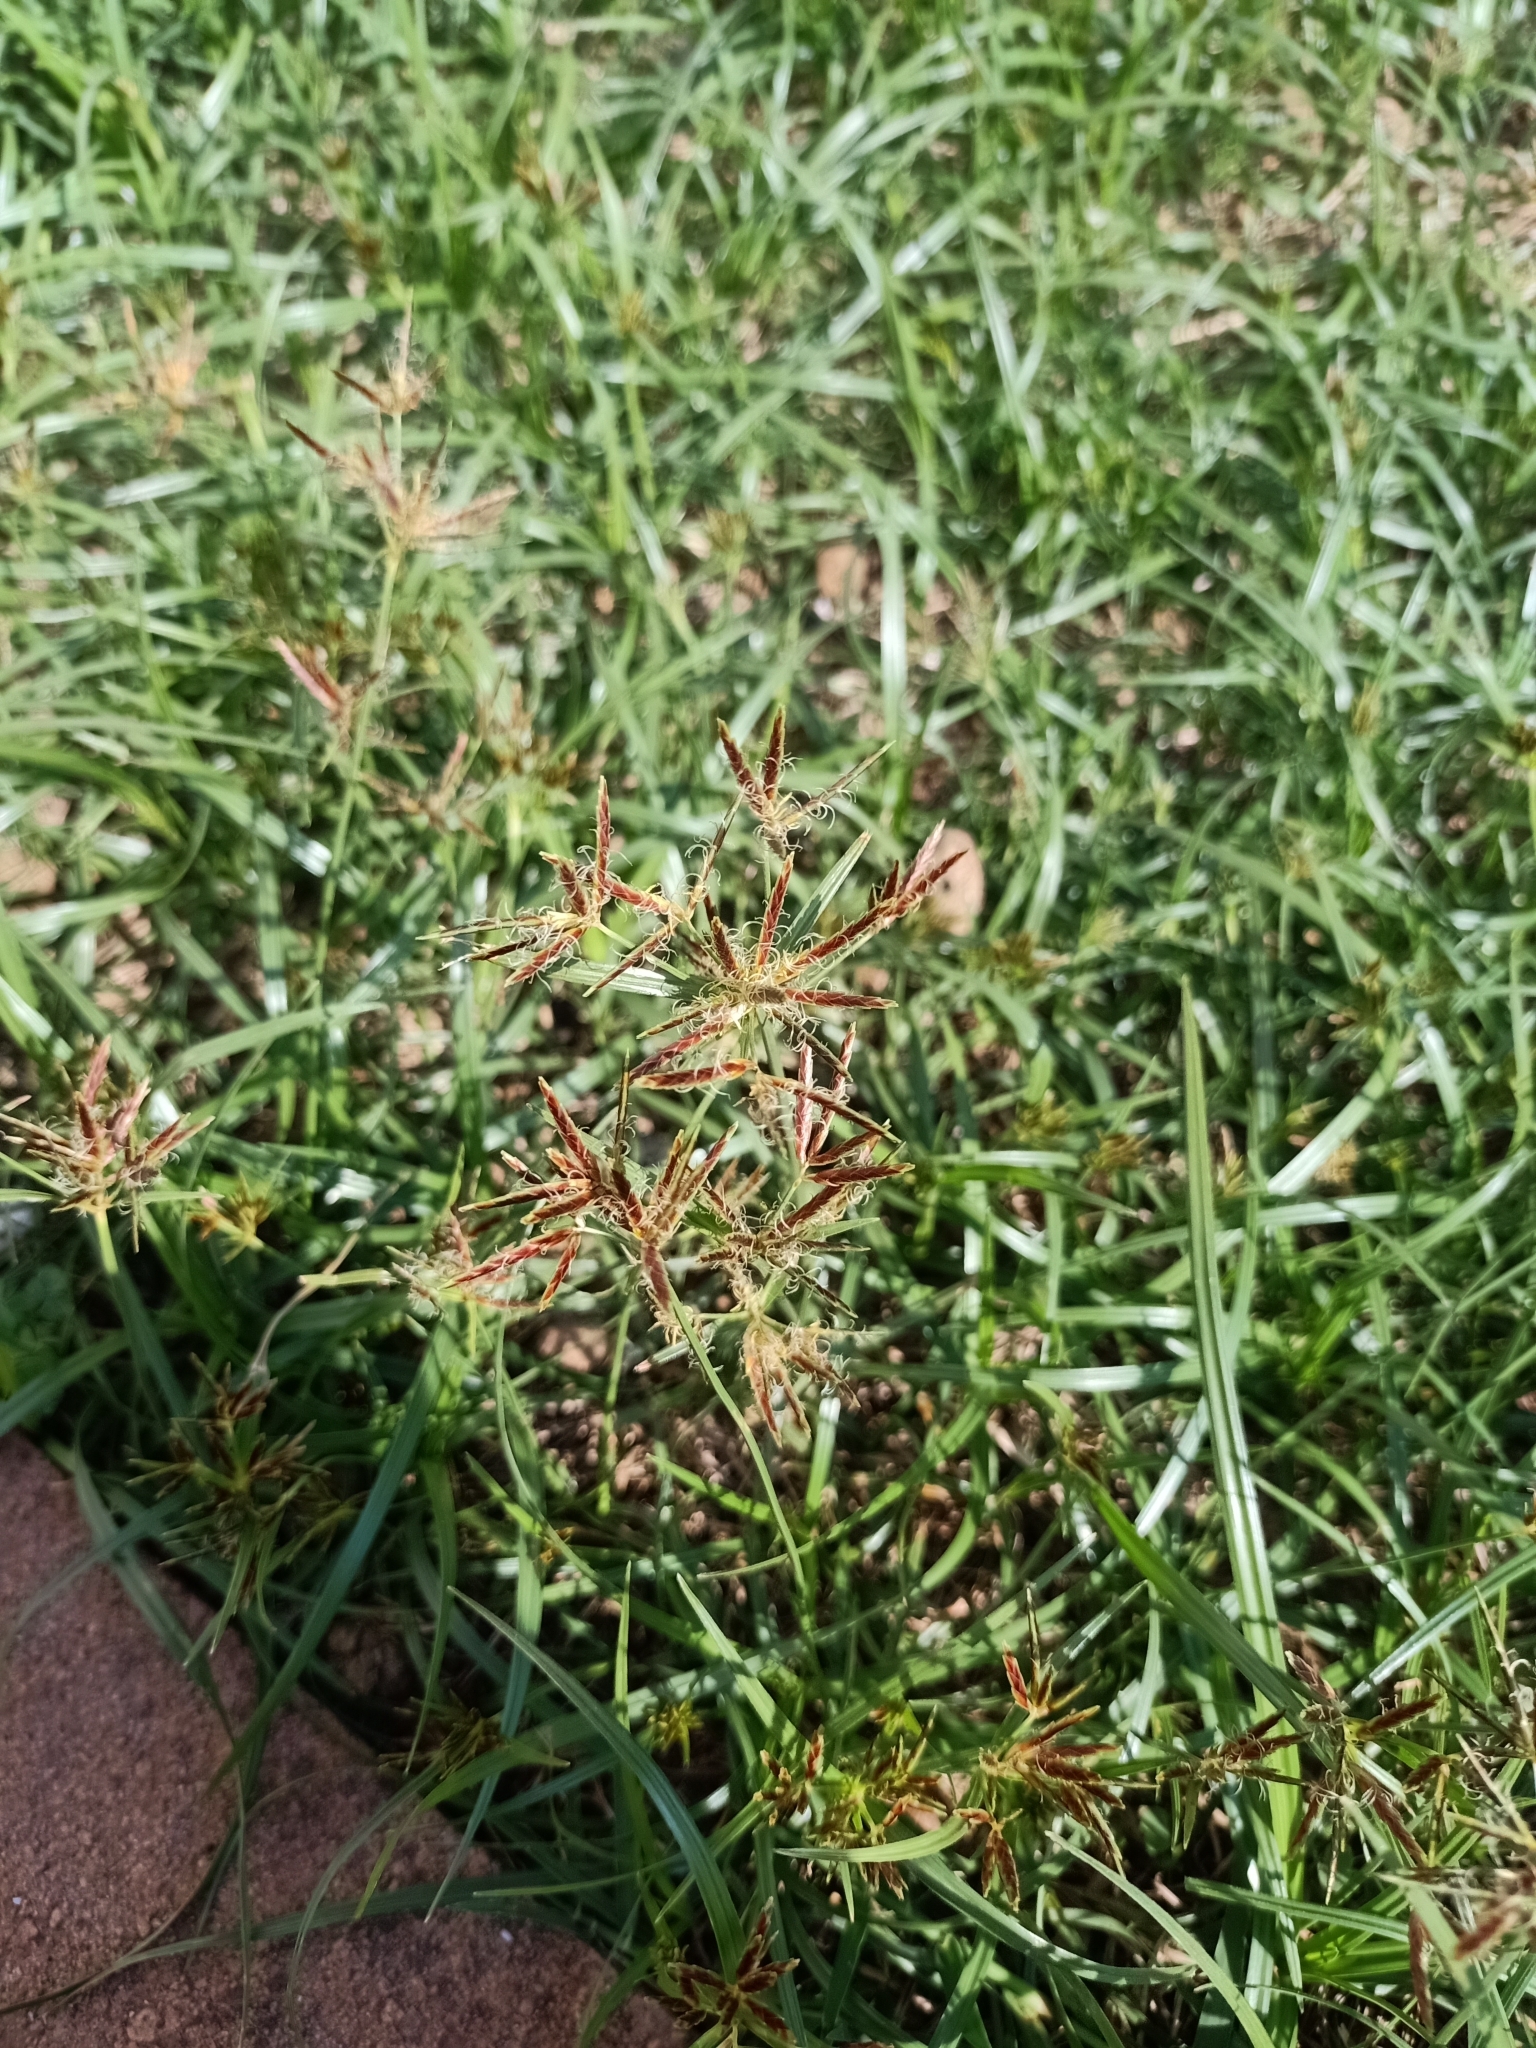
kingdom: Plantae
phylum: Tracheophyta
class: Liliopsida
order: Poales
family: Cyperaceae
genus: Cyperus
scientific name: Cyperus rotundus
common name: Nutgrass
